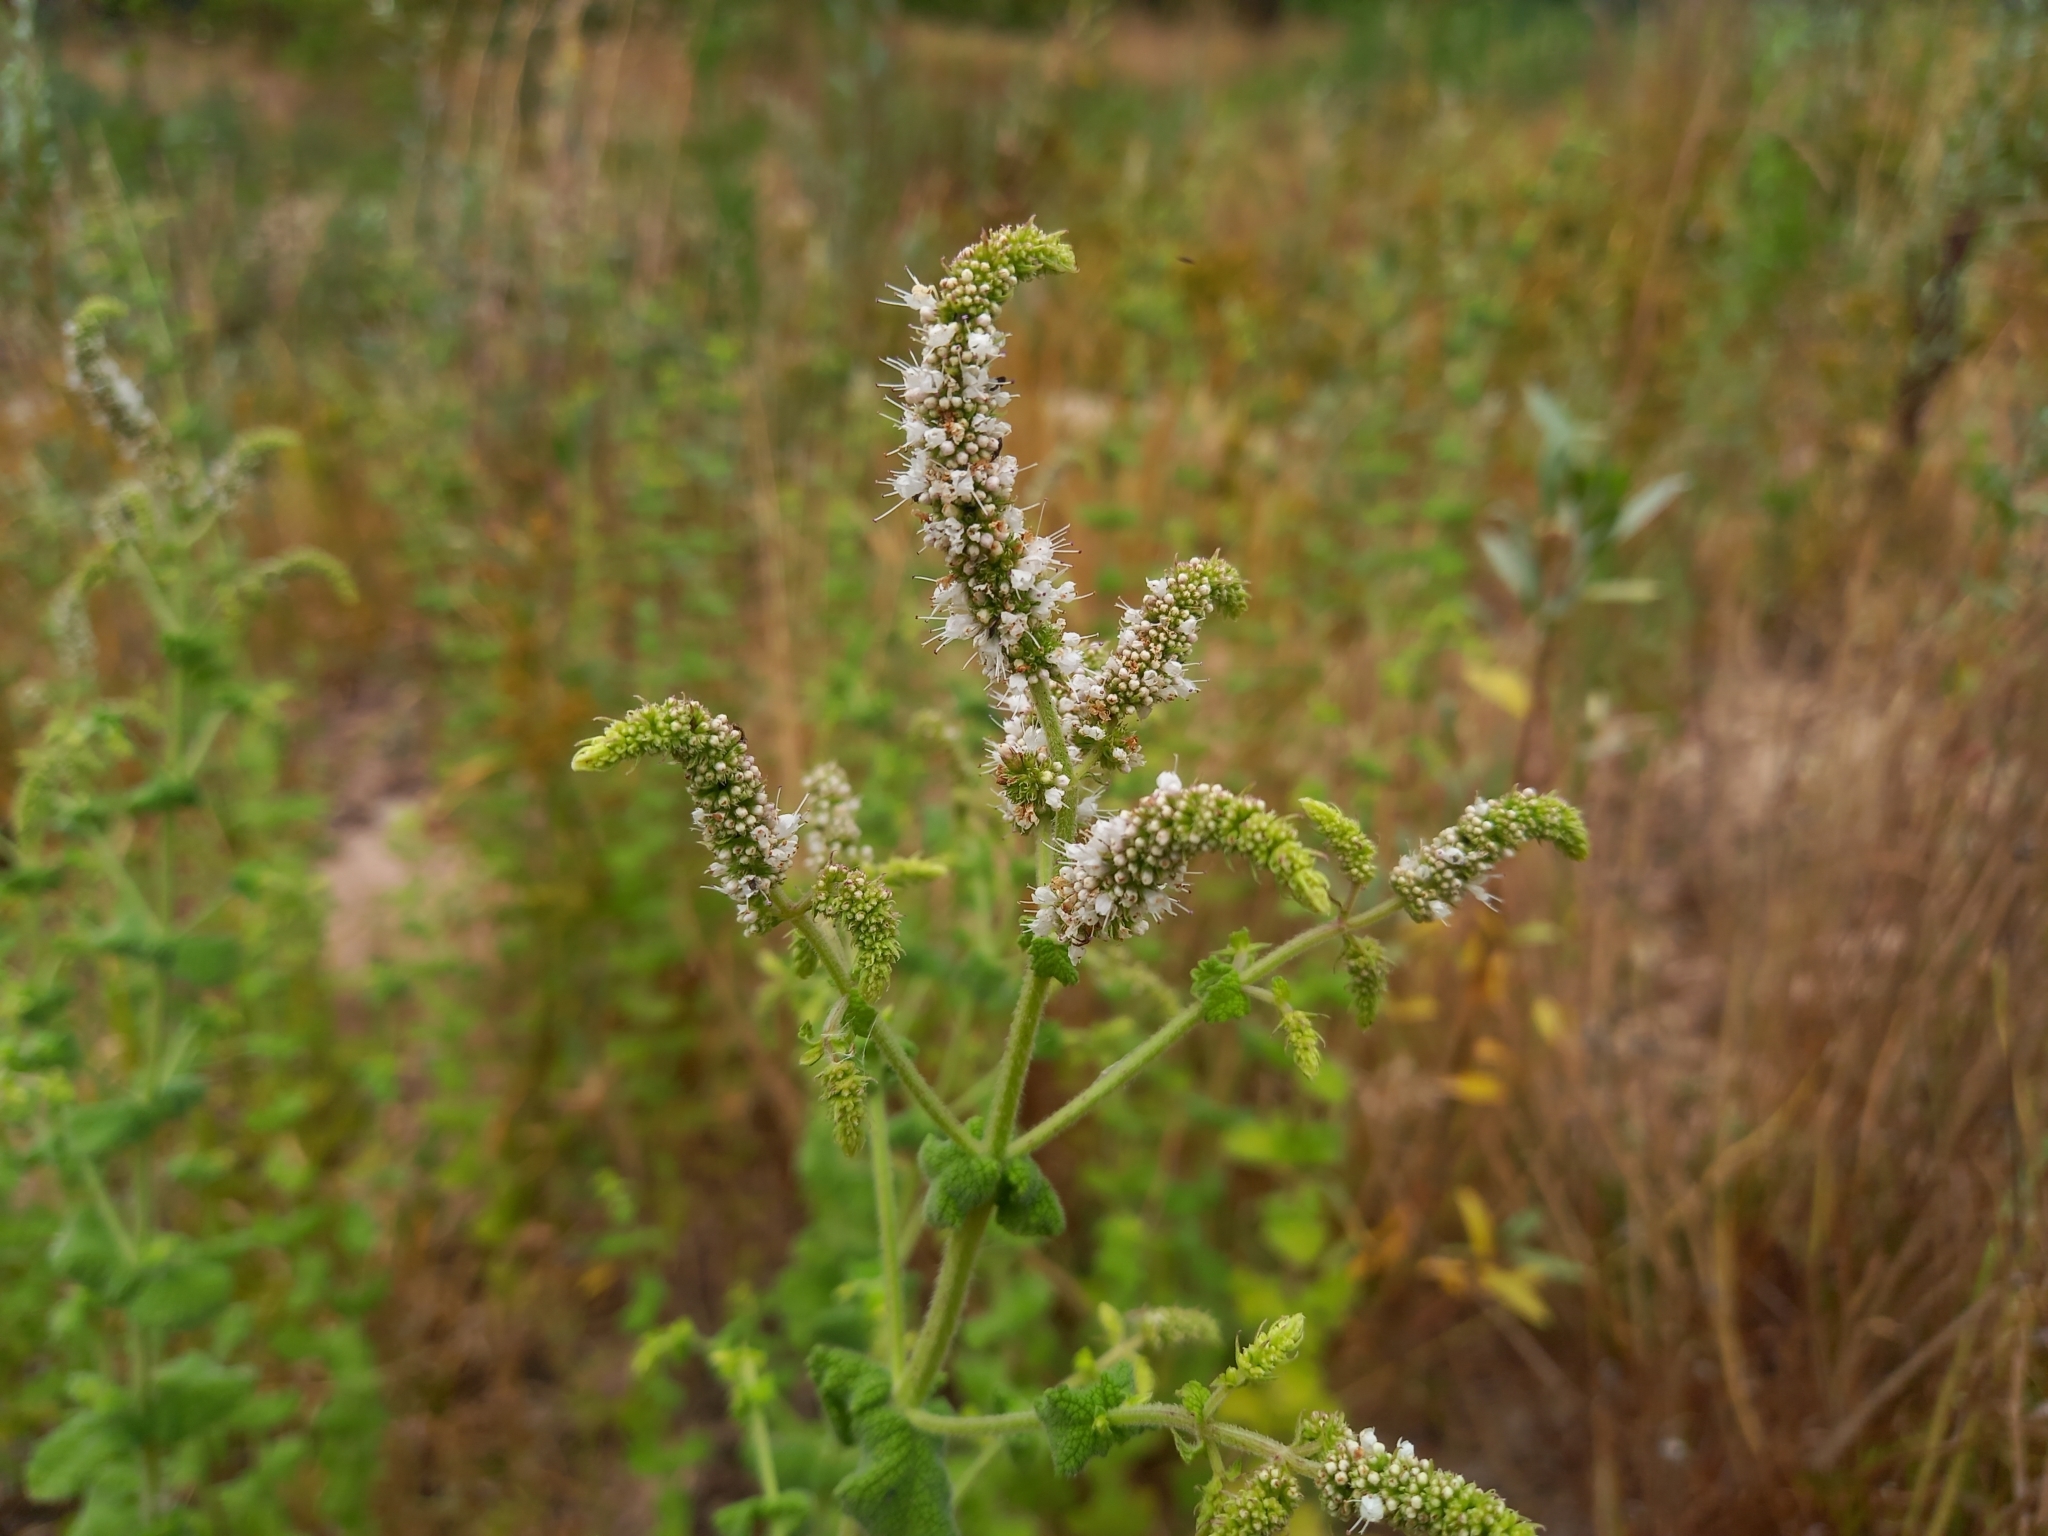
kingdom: Plantae
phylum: Tracheophyta
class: Magnoliopsida
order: Lamiales
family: Lamiaceae
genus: Mentha
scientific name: Mentha suaveolens
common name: Apple mint
